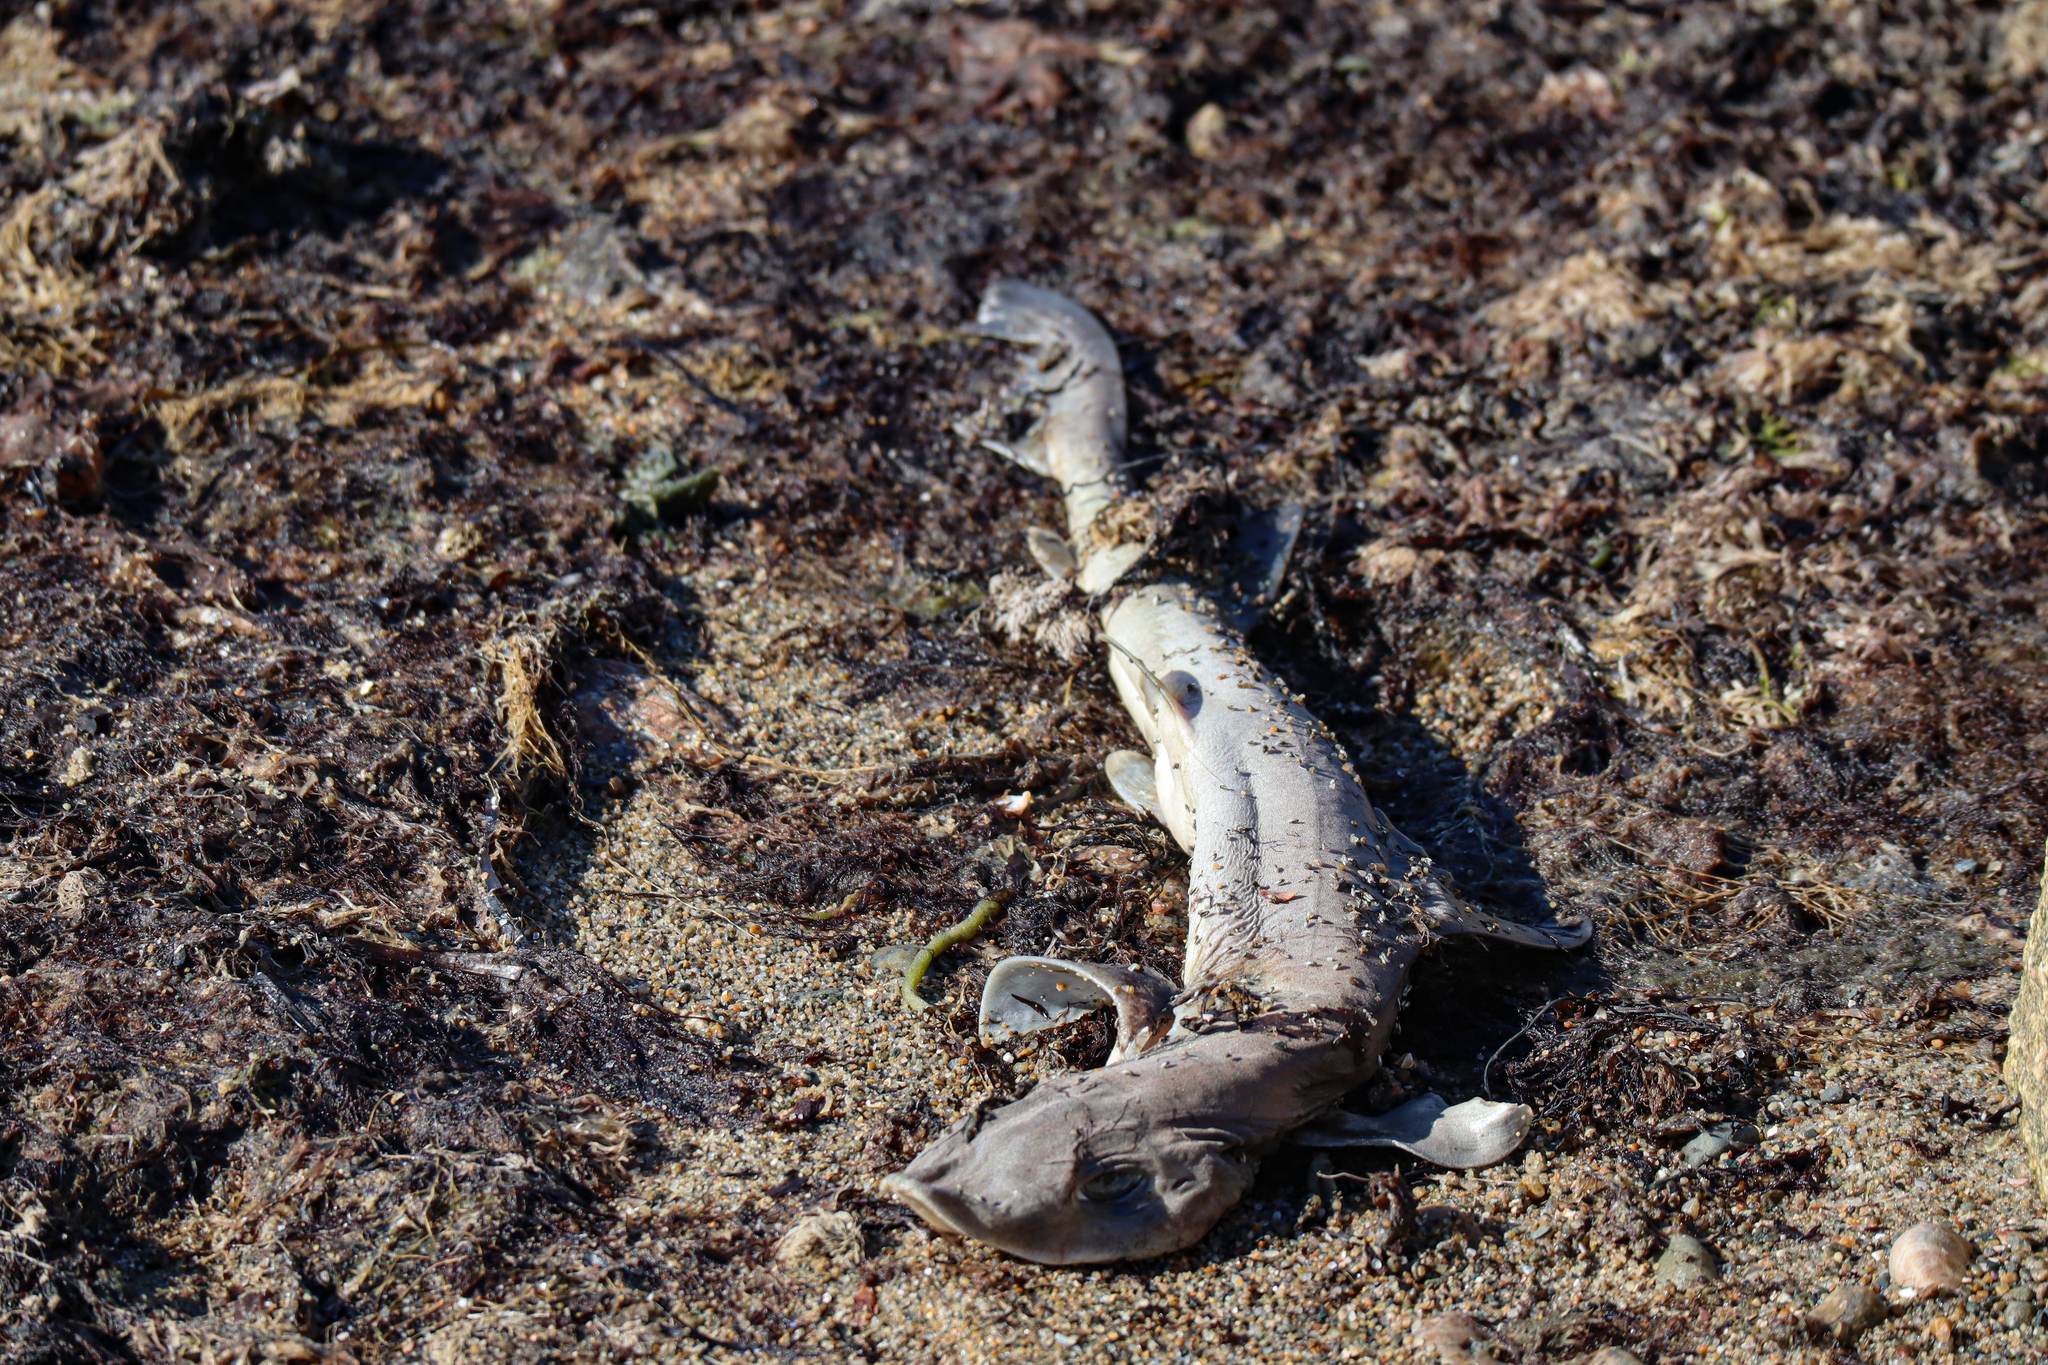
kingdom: Animalia
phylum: Chordata
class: Elasmobranchii
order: Carcharhiniformes
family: Triakidae
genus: Mustelus
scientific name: Mustelus canis
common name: Smooth dogfish
